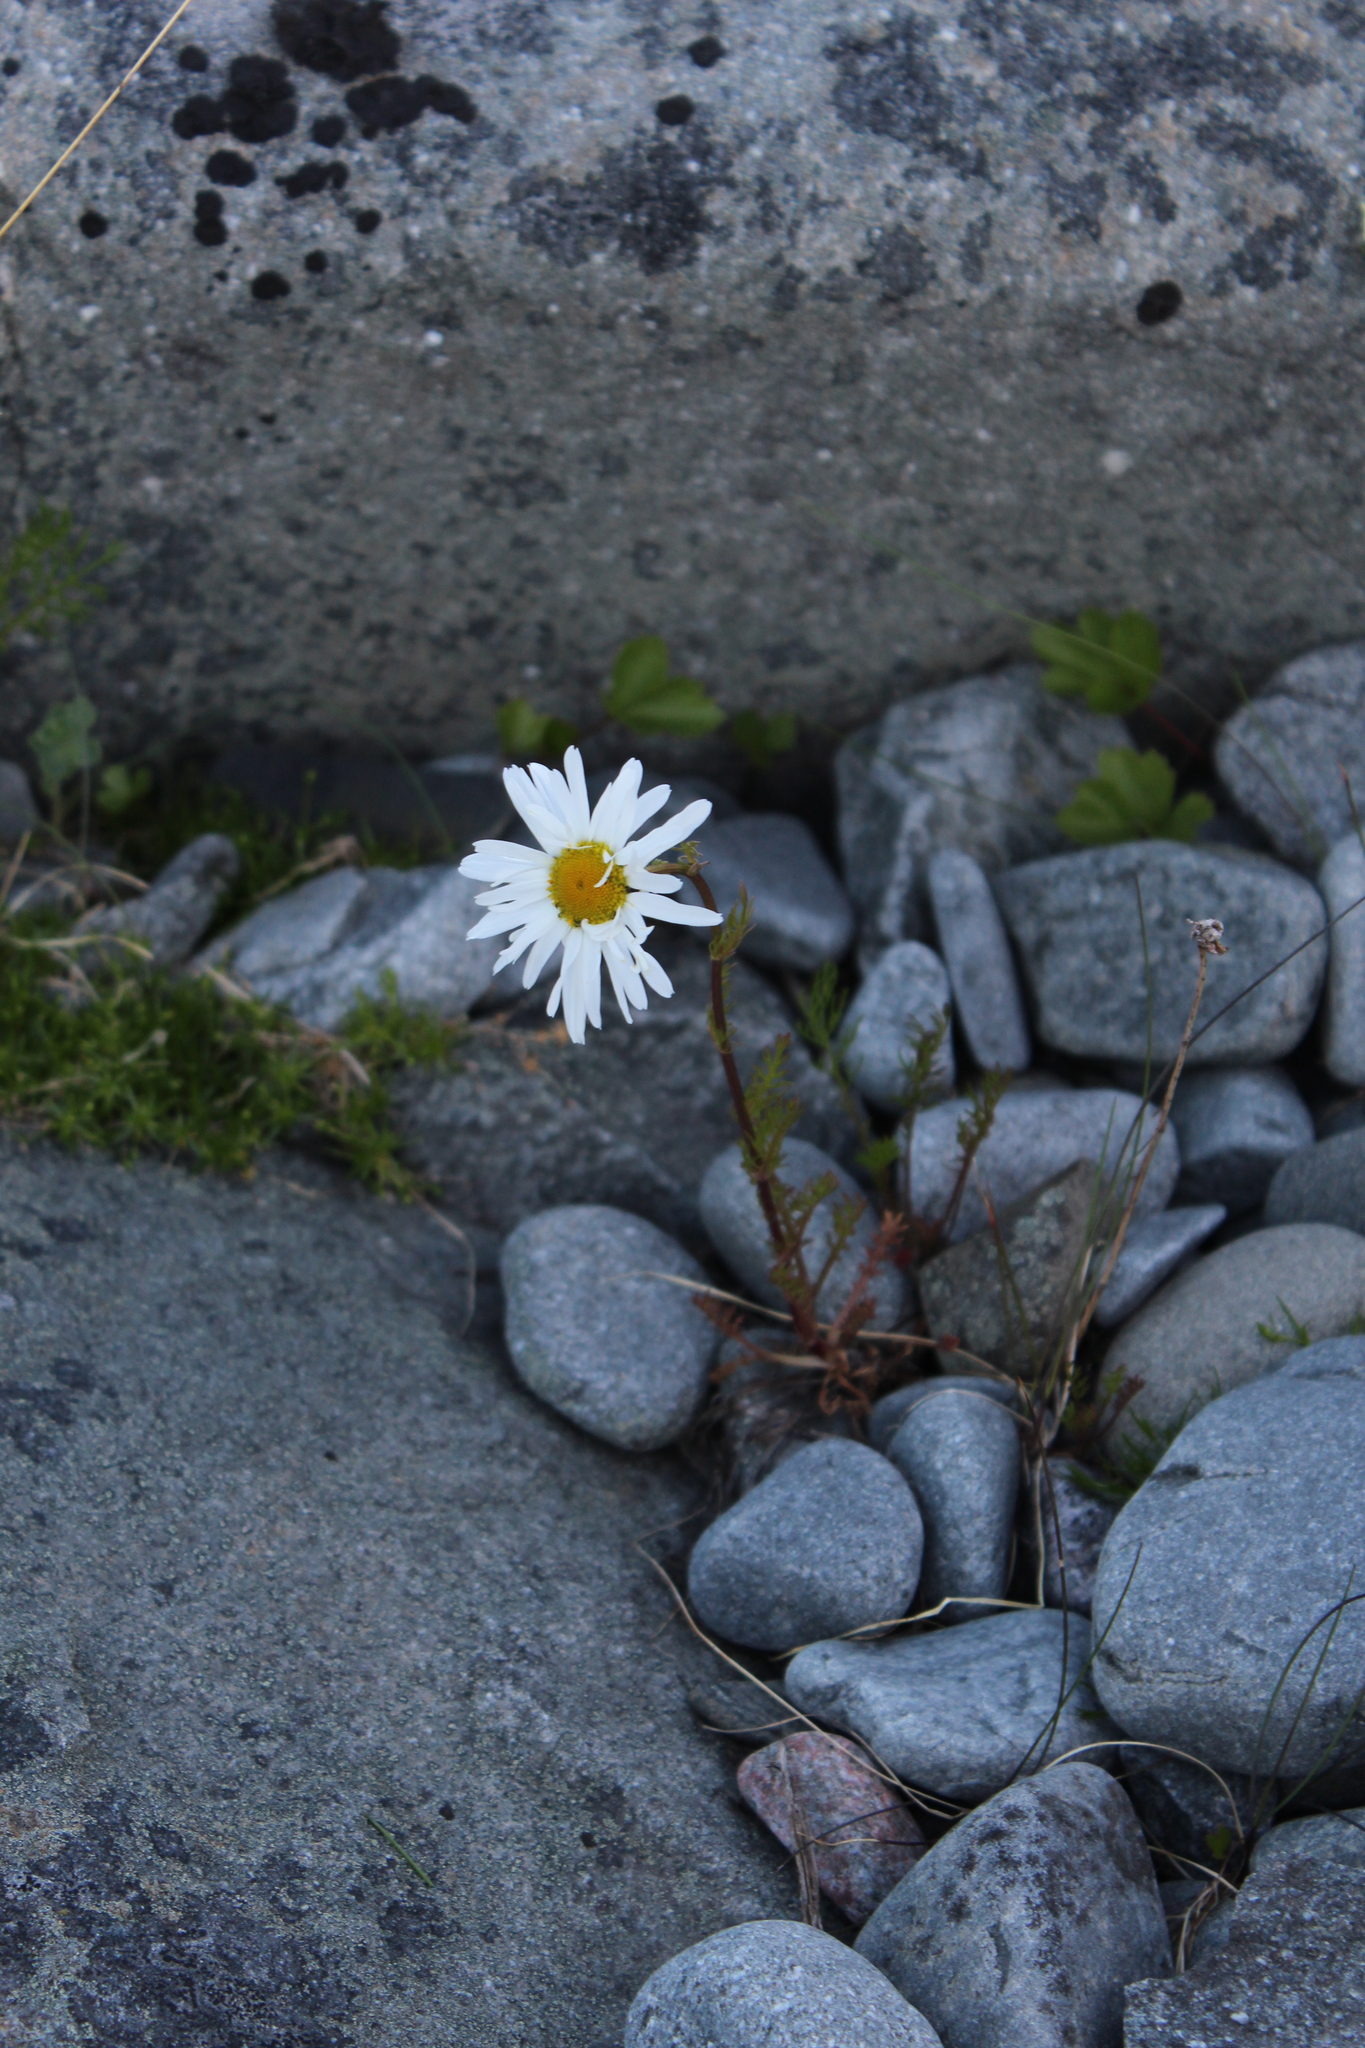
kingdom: Plantae
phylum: Tracheophyta
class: Magnoliopsida
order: Asterales
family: Asteraceae
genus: Tripleurospermum
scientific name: Tripleurospermum subpolare
